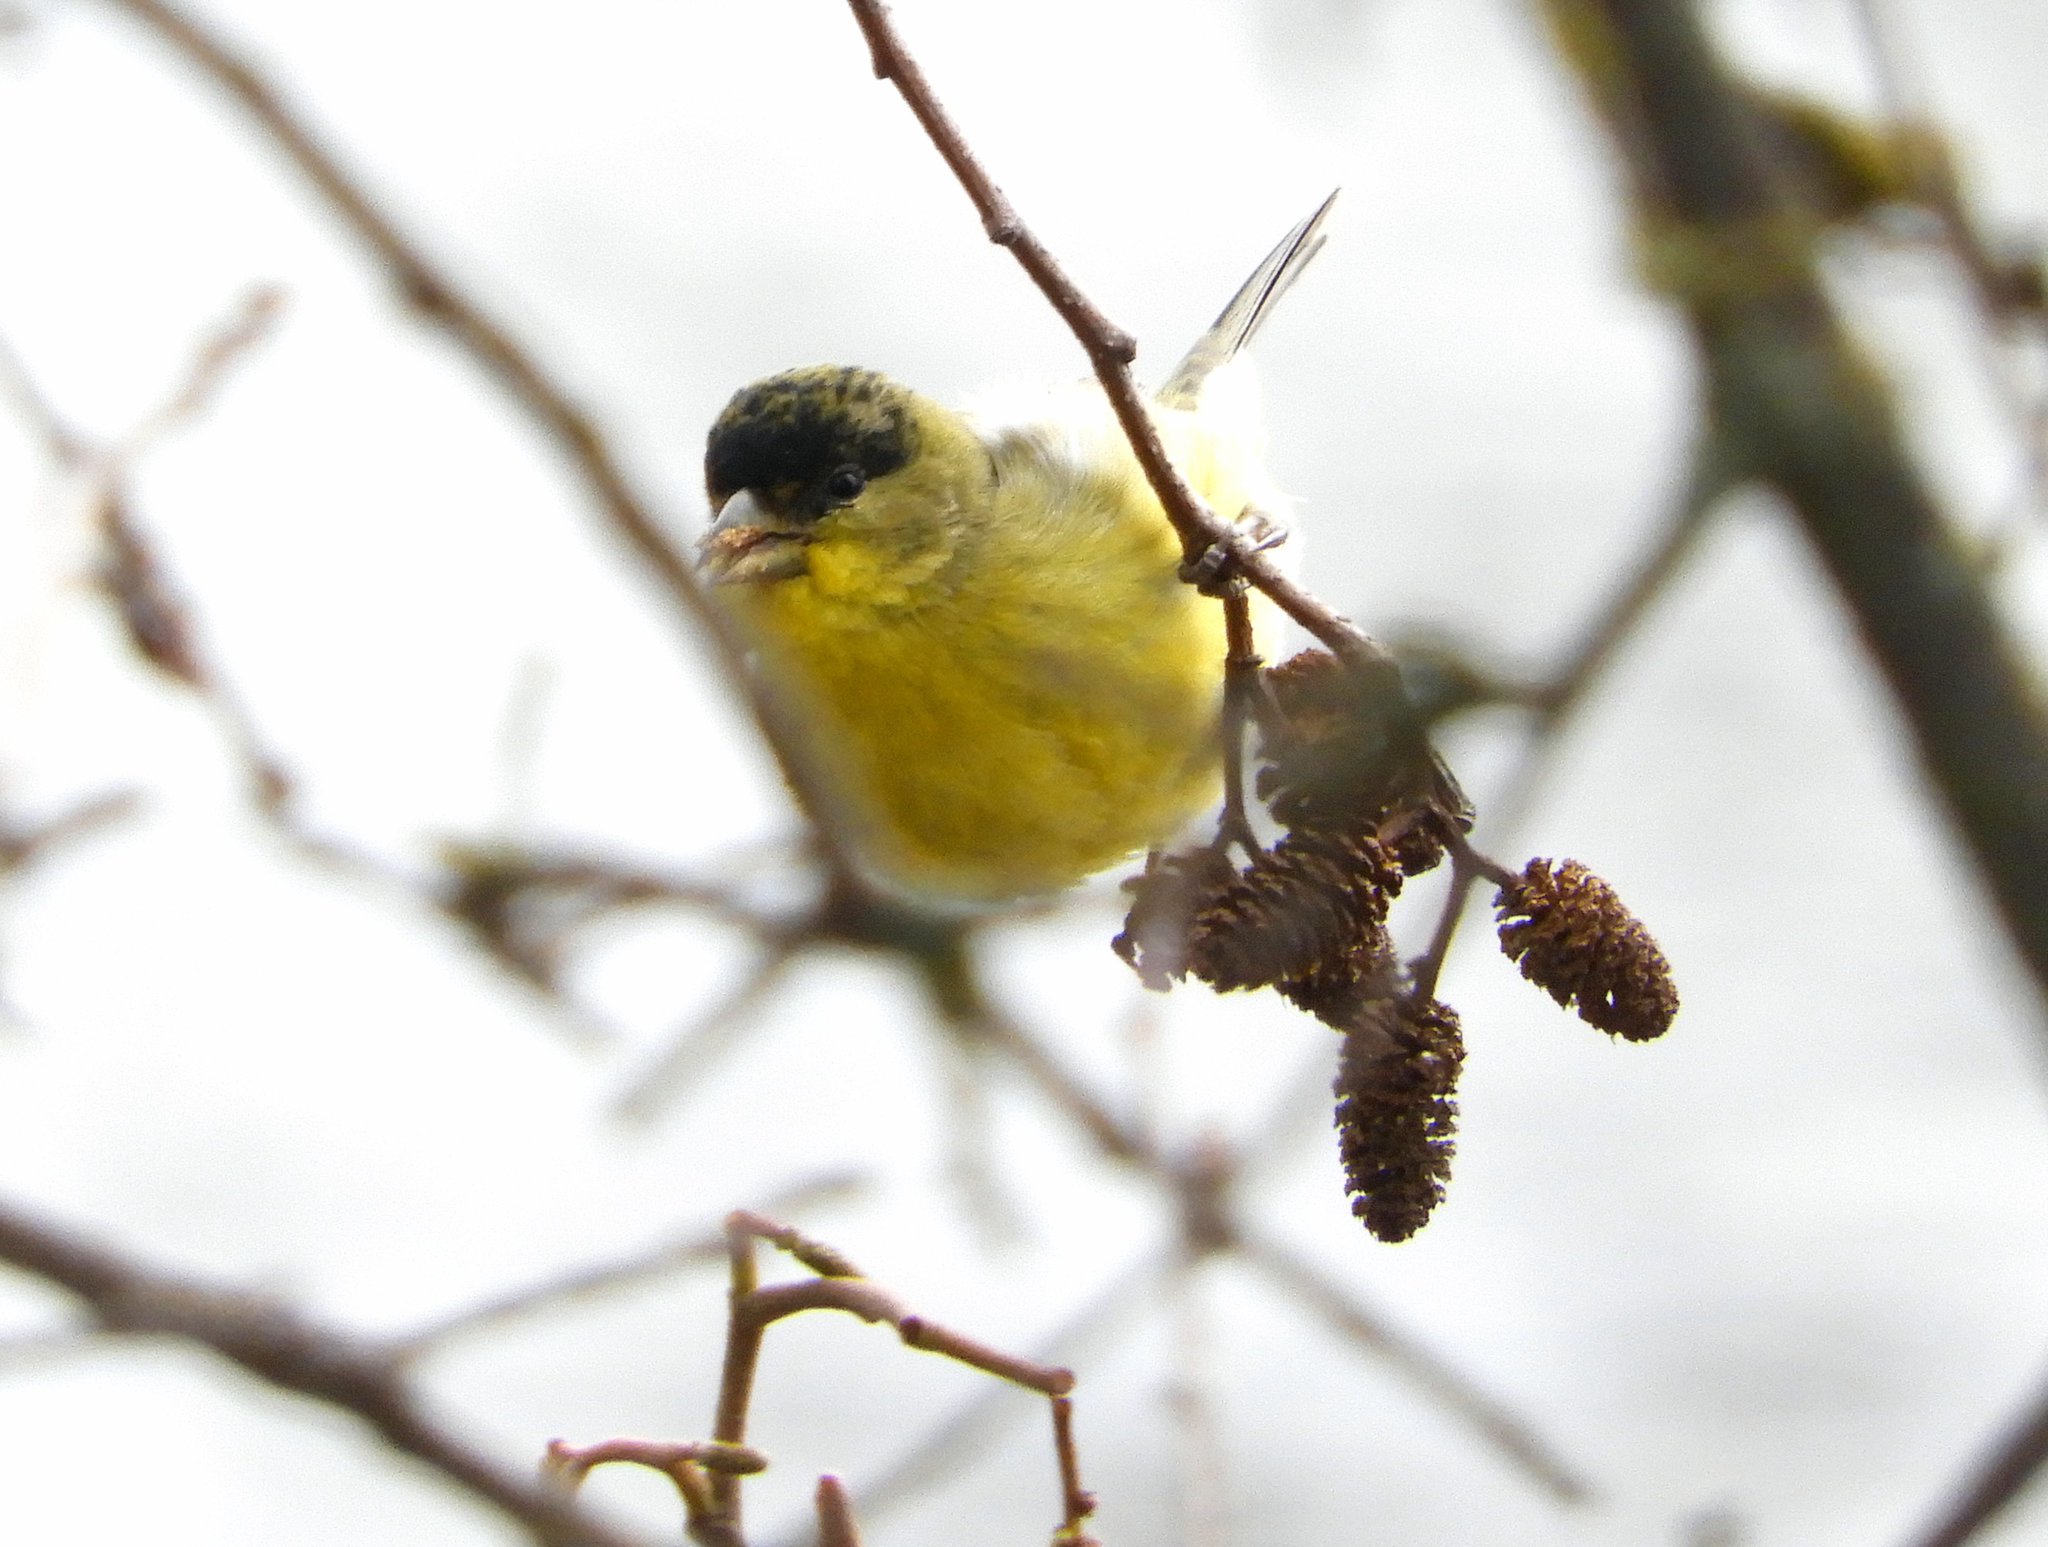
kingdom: Animalia
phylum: Chordata
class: Aves
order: Passeriformes
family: Fringillidae
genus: Spinus
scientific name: Spinus psaltria
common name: Lesser goldfinch
